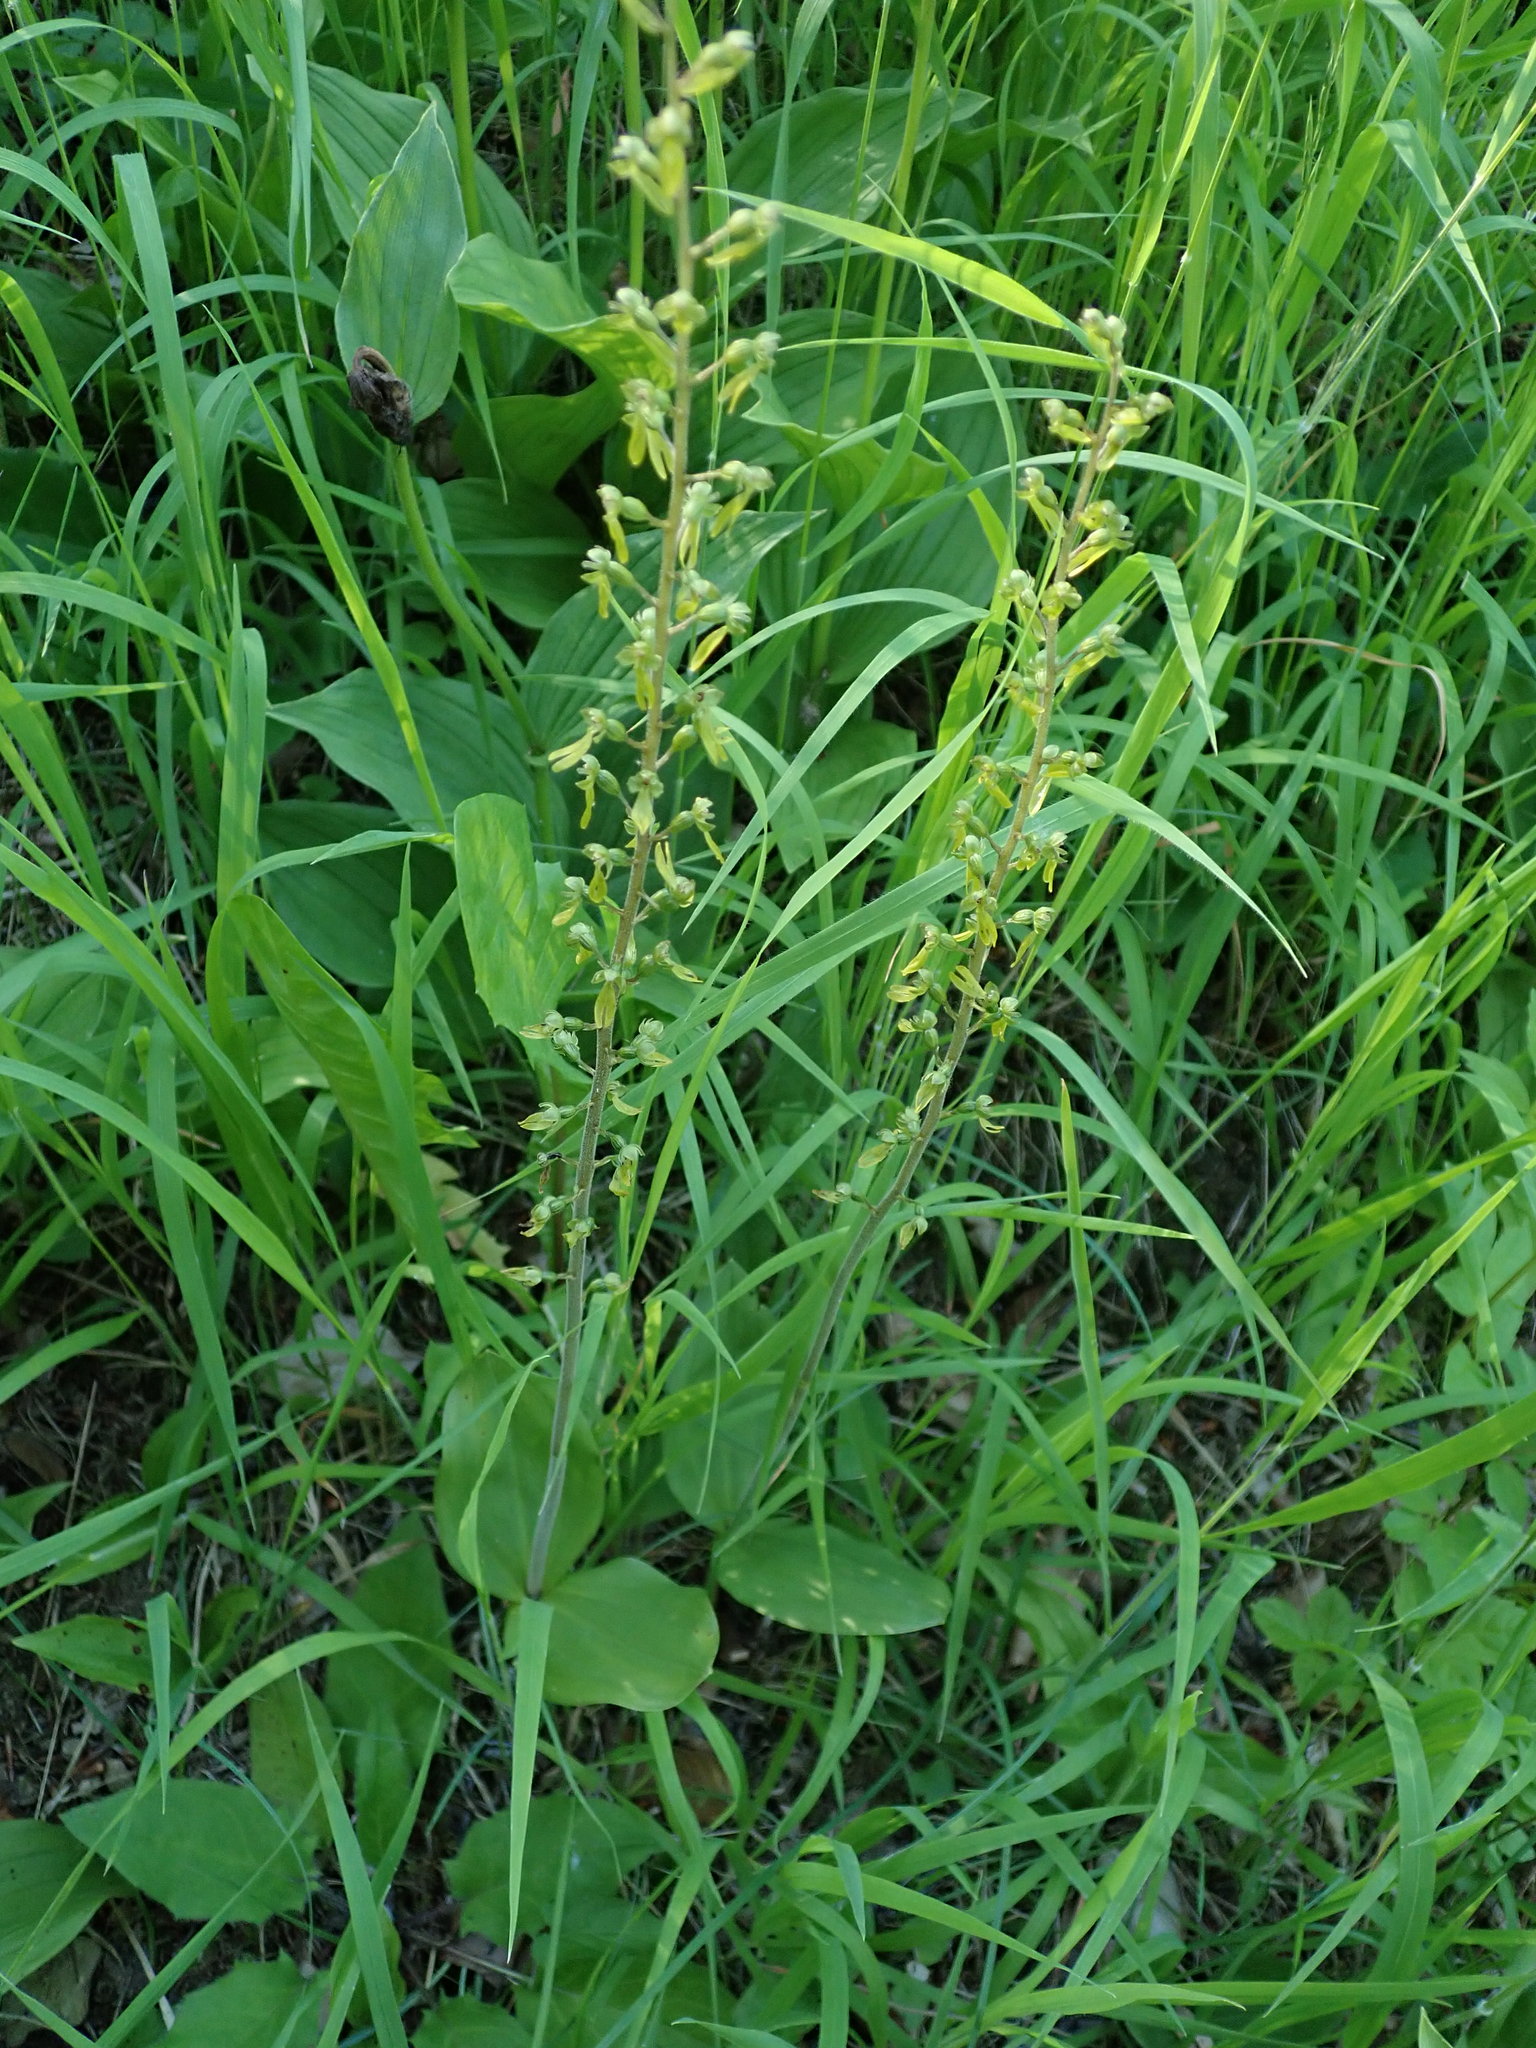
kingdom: Plantae
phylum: Tracheophyta
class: Liliopsida
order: Asparagales
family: Orchidaceae
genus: Neottia
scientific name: Neottia ovata
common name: Common twayblade
